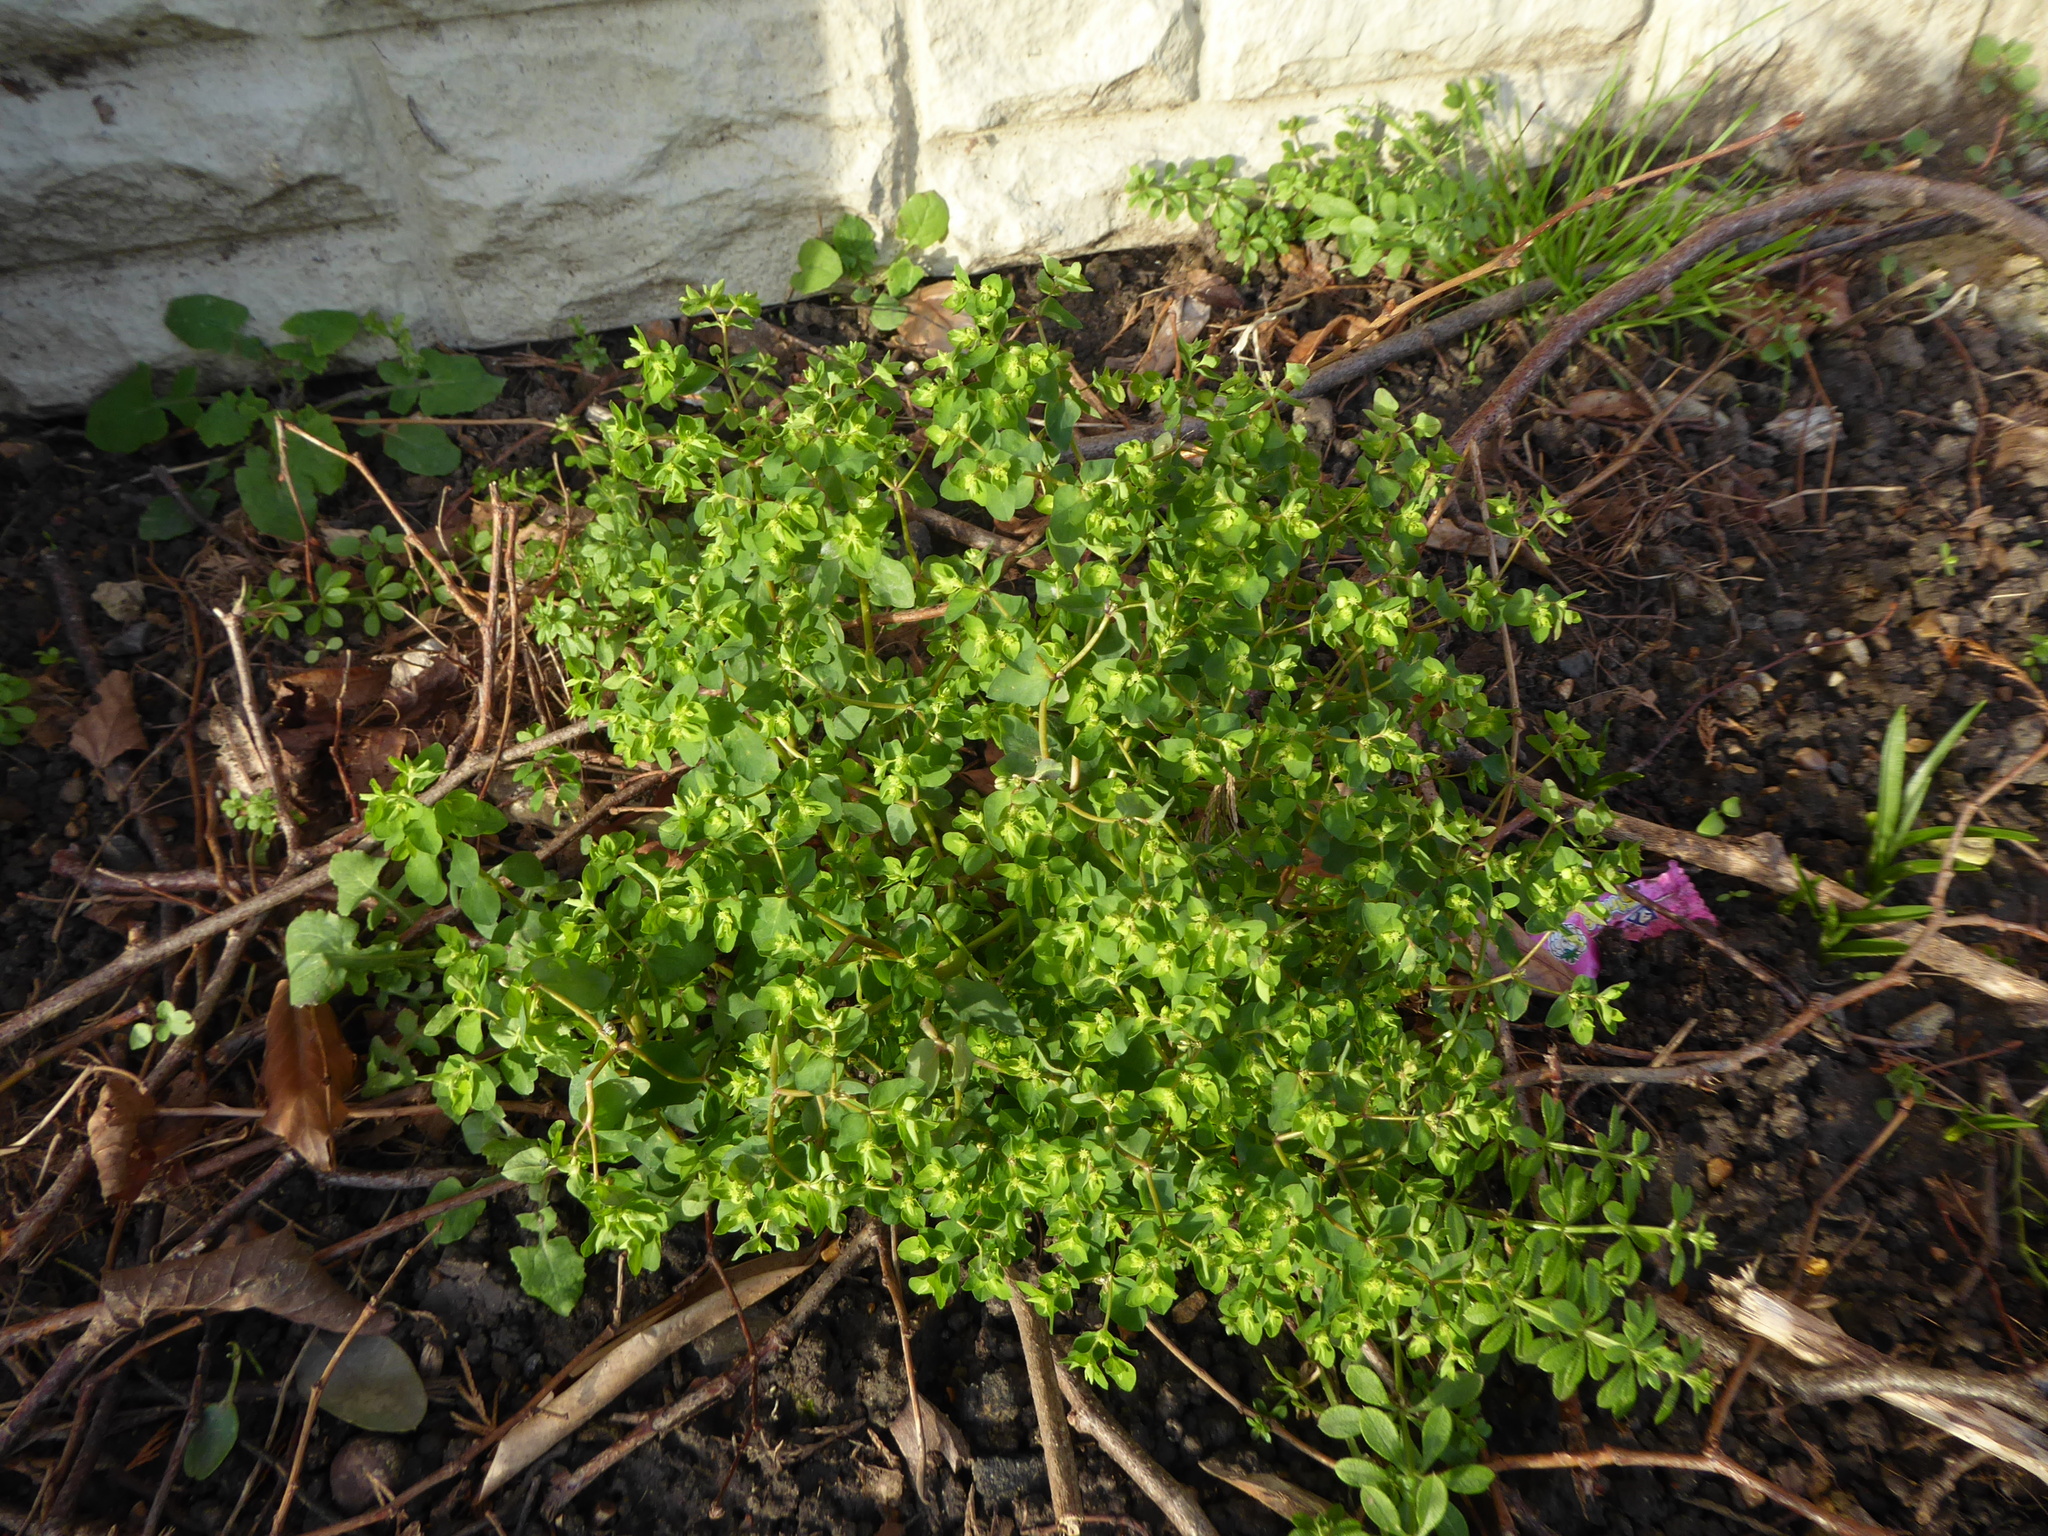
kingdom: Plantae
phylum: Tracheophyta
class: Magnoliopsida
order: Malpighiales
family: Euphorbiaceae
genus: Euphorbia
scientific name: Euphorbia peplus
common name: Petty spurge
